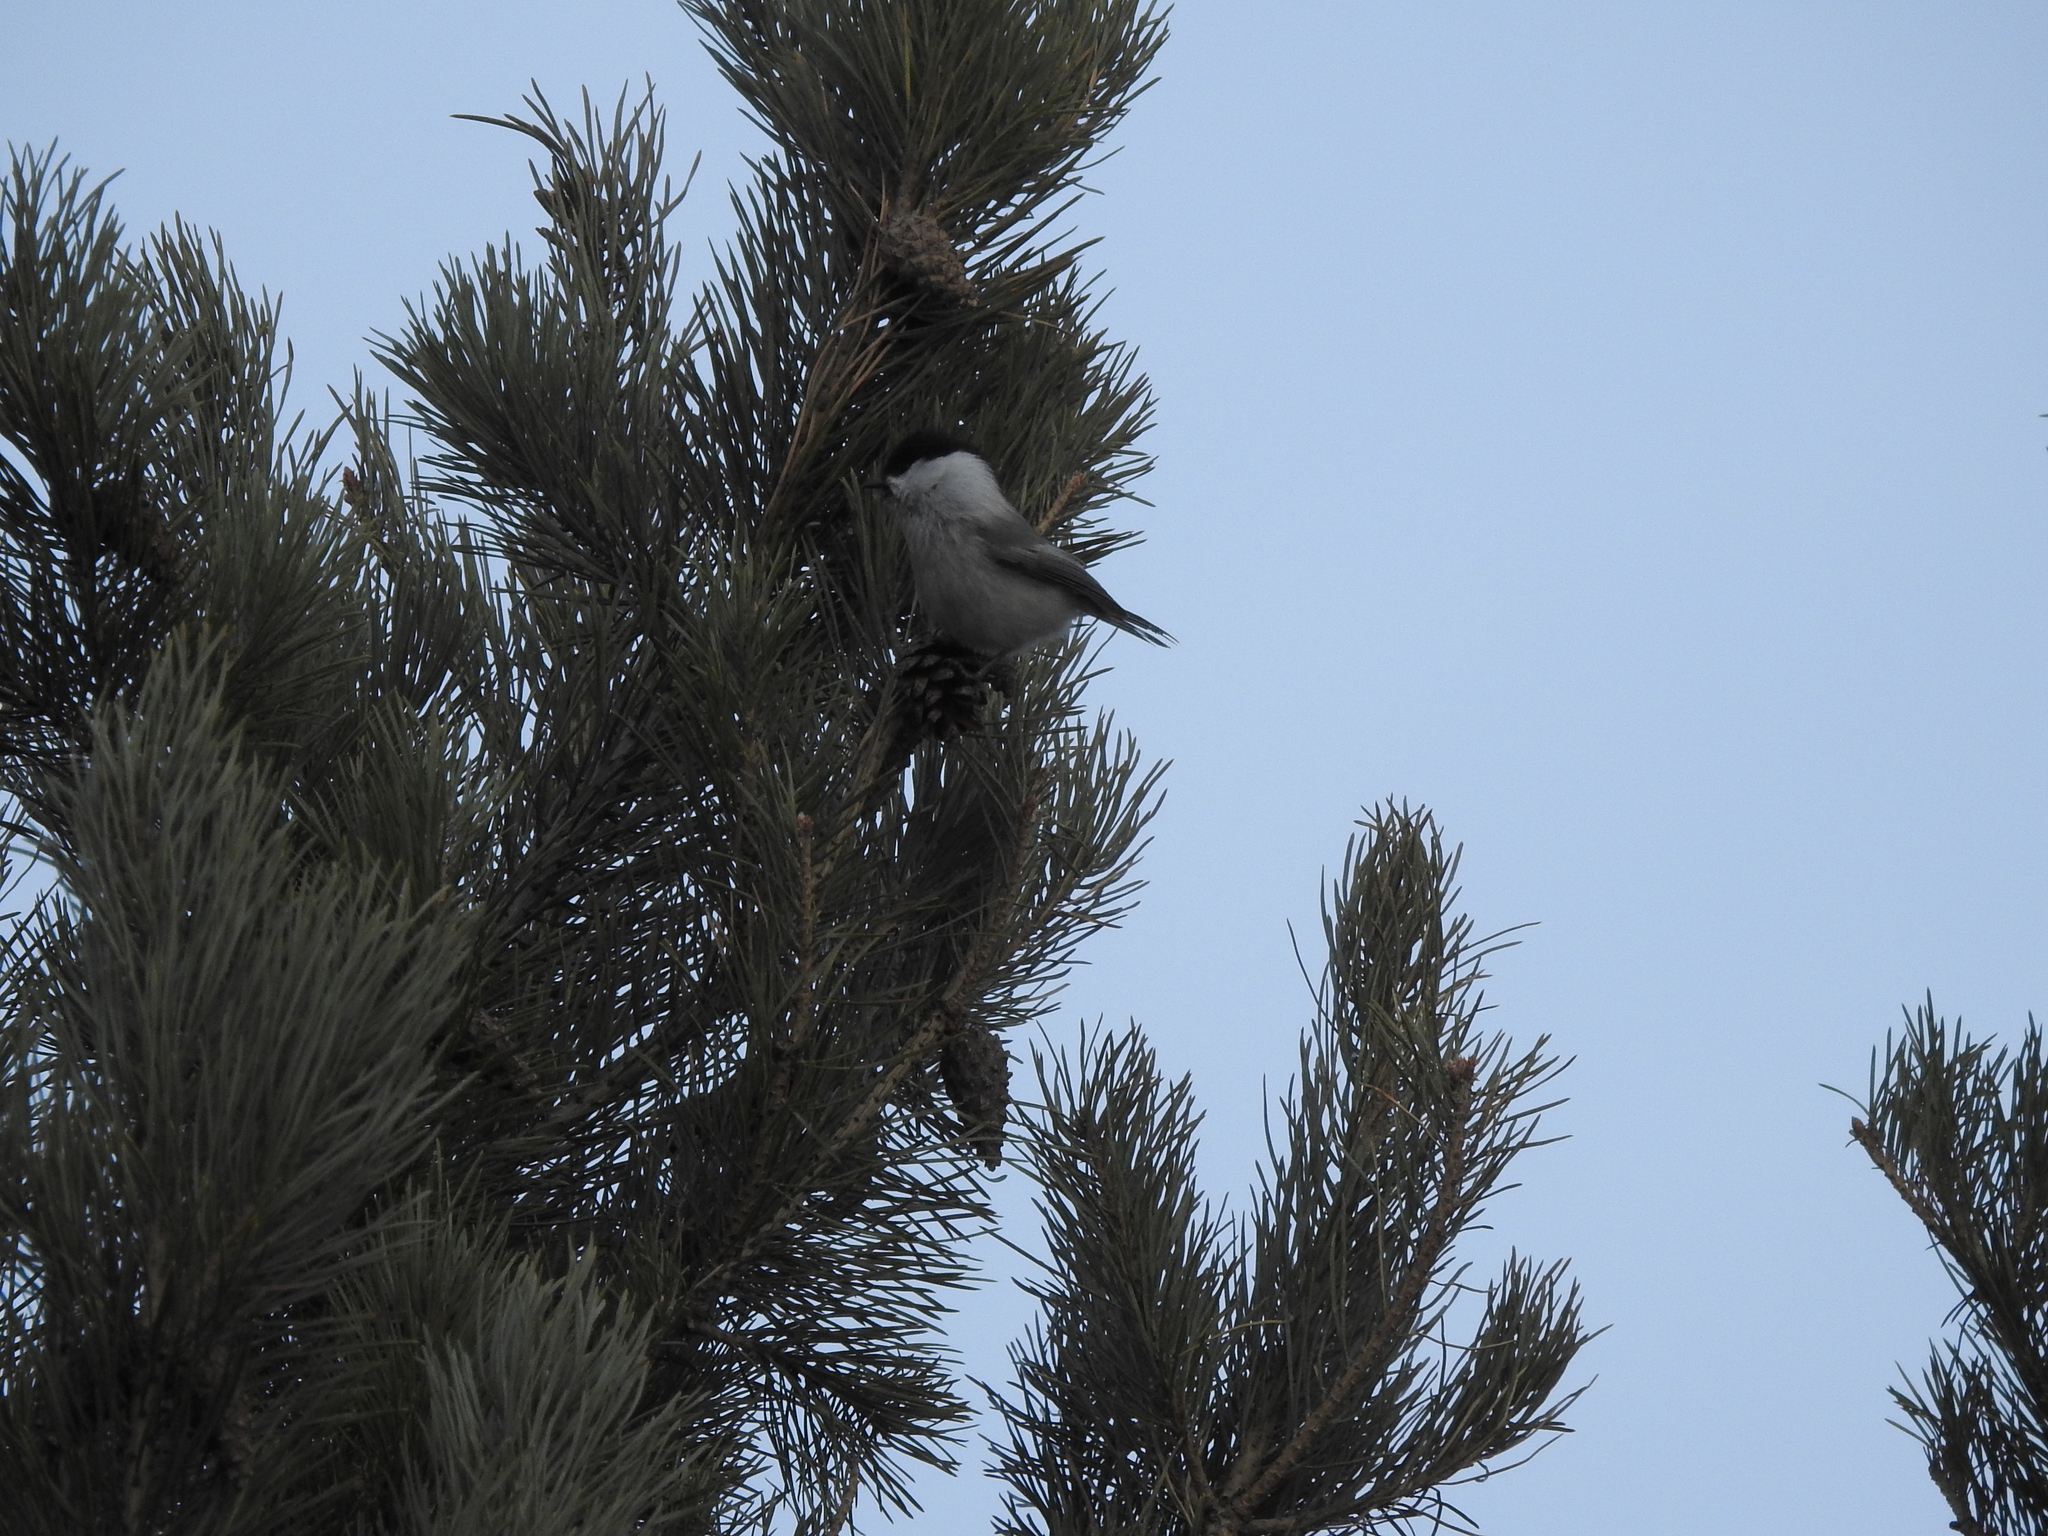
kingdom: Animalia
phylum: Chordata
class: Aves
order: Passeriformes
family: Paridae
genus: Poecile
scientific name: Poecile montanus
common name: Willow tit
